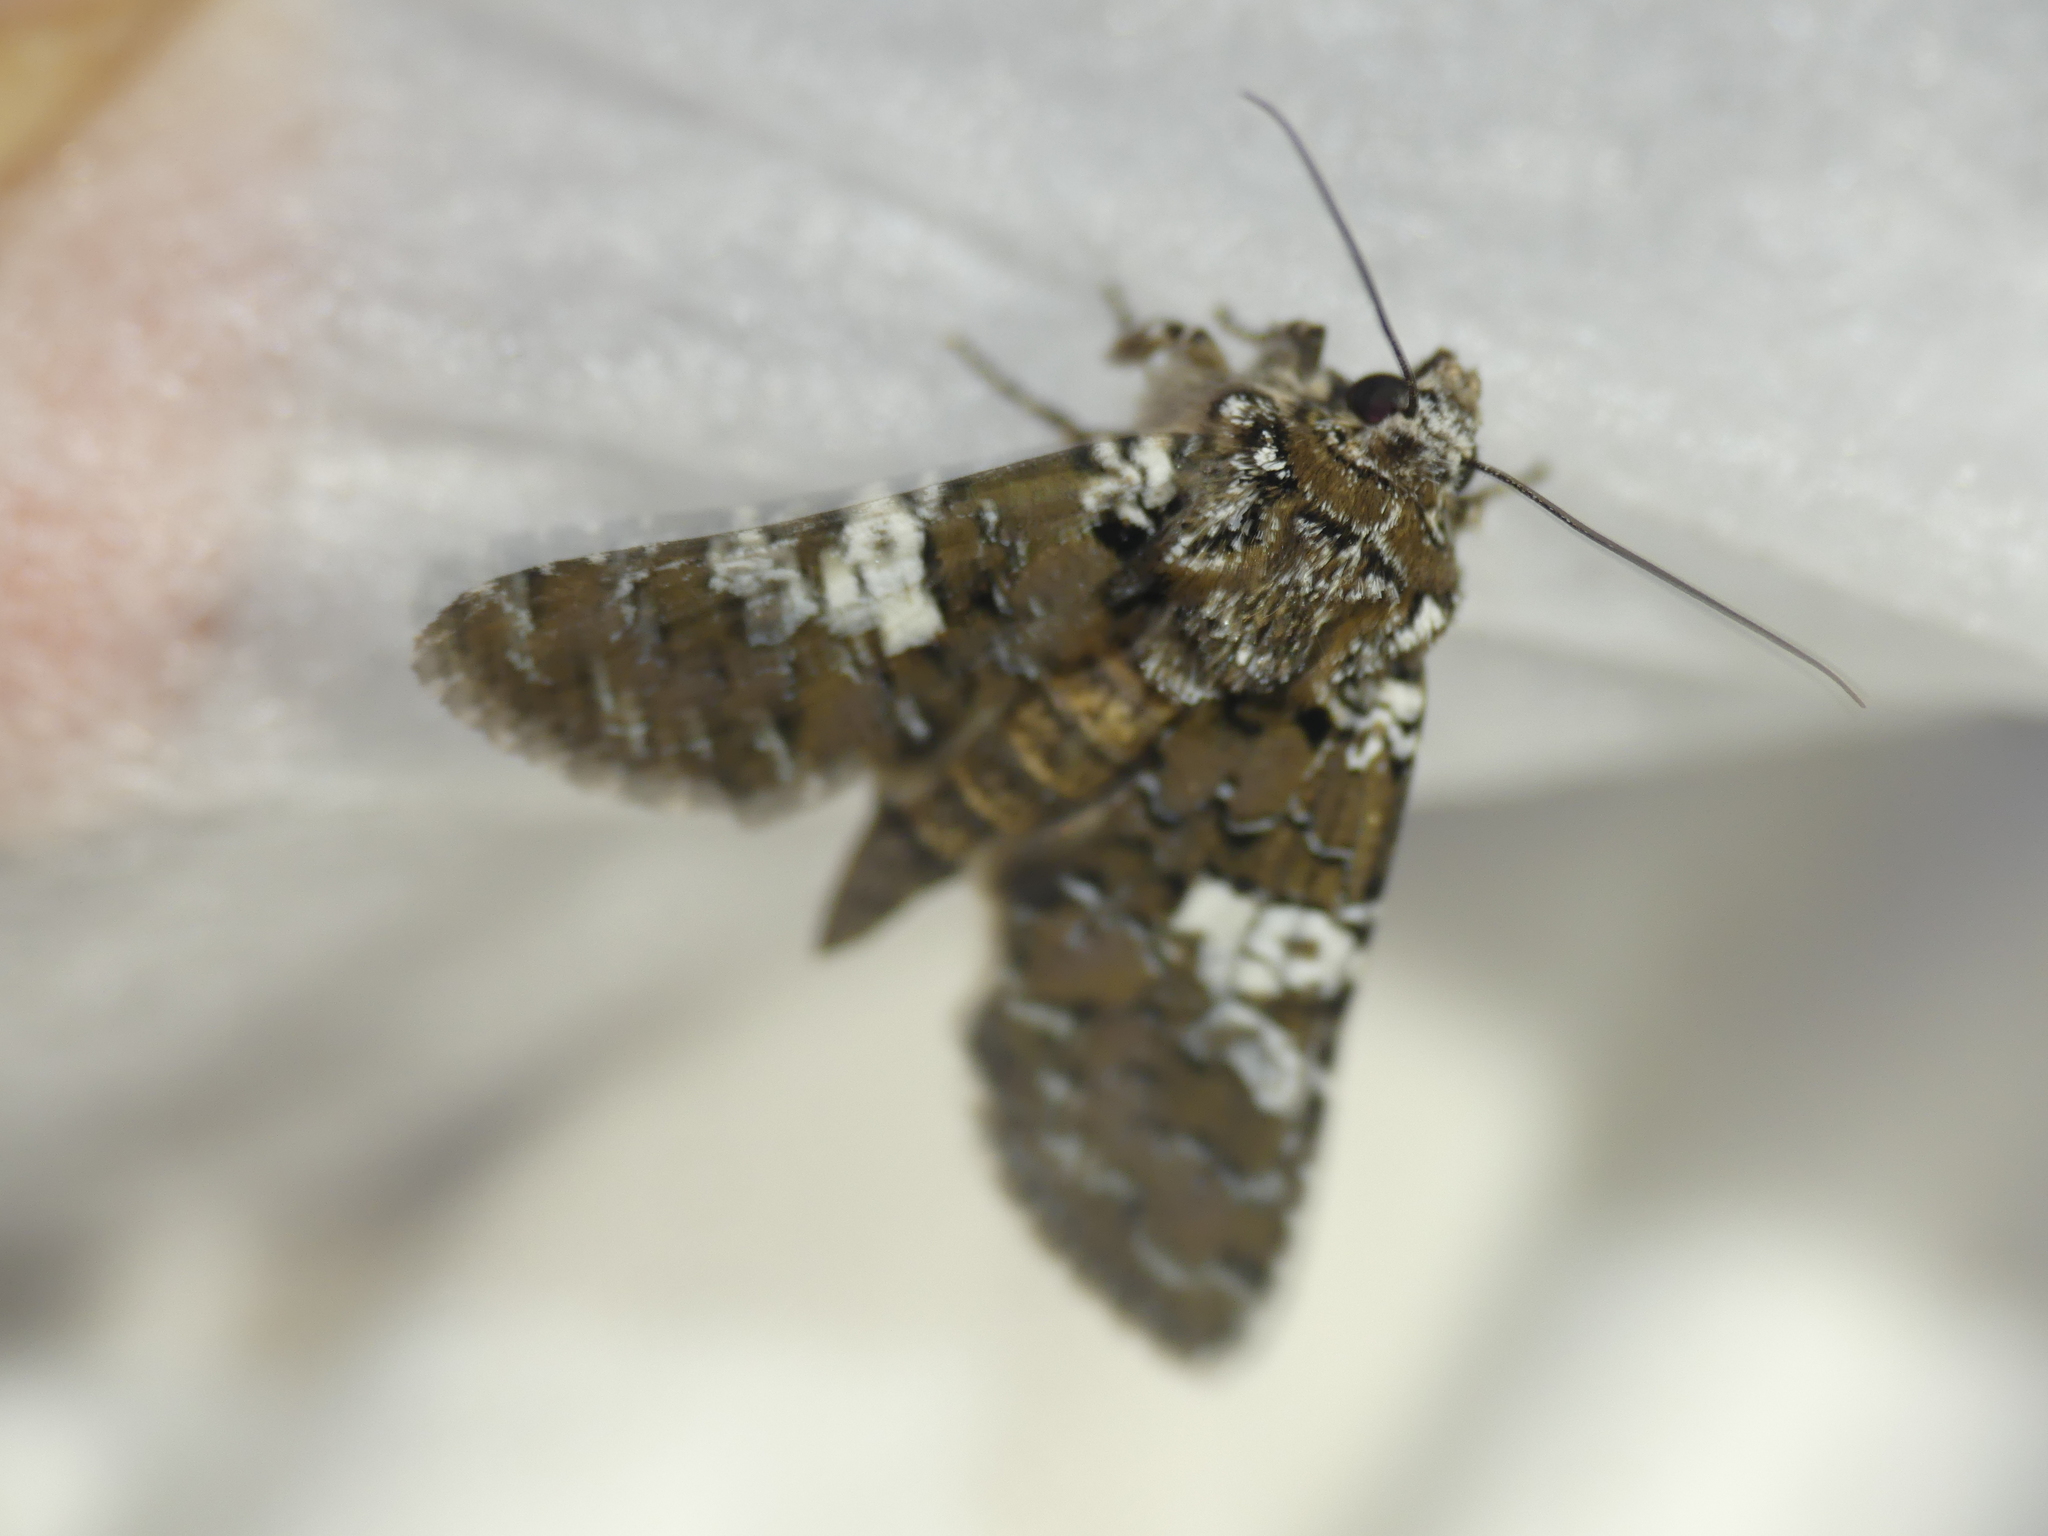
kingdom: Animalia
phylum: Arthropoda
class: Insecta
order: Lepidoptera
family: Noctuidae
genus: Hadena
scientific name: Hadena albimacula
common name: White spot
